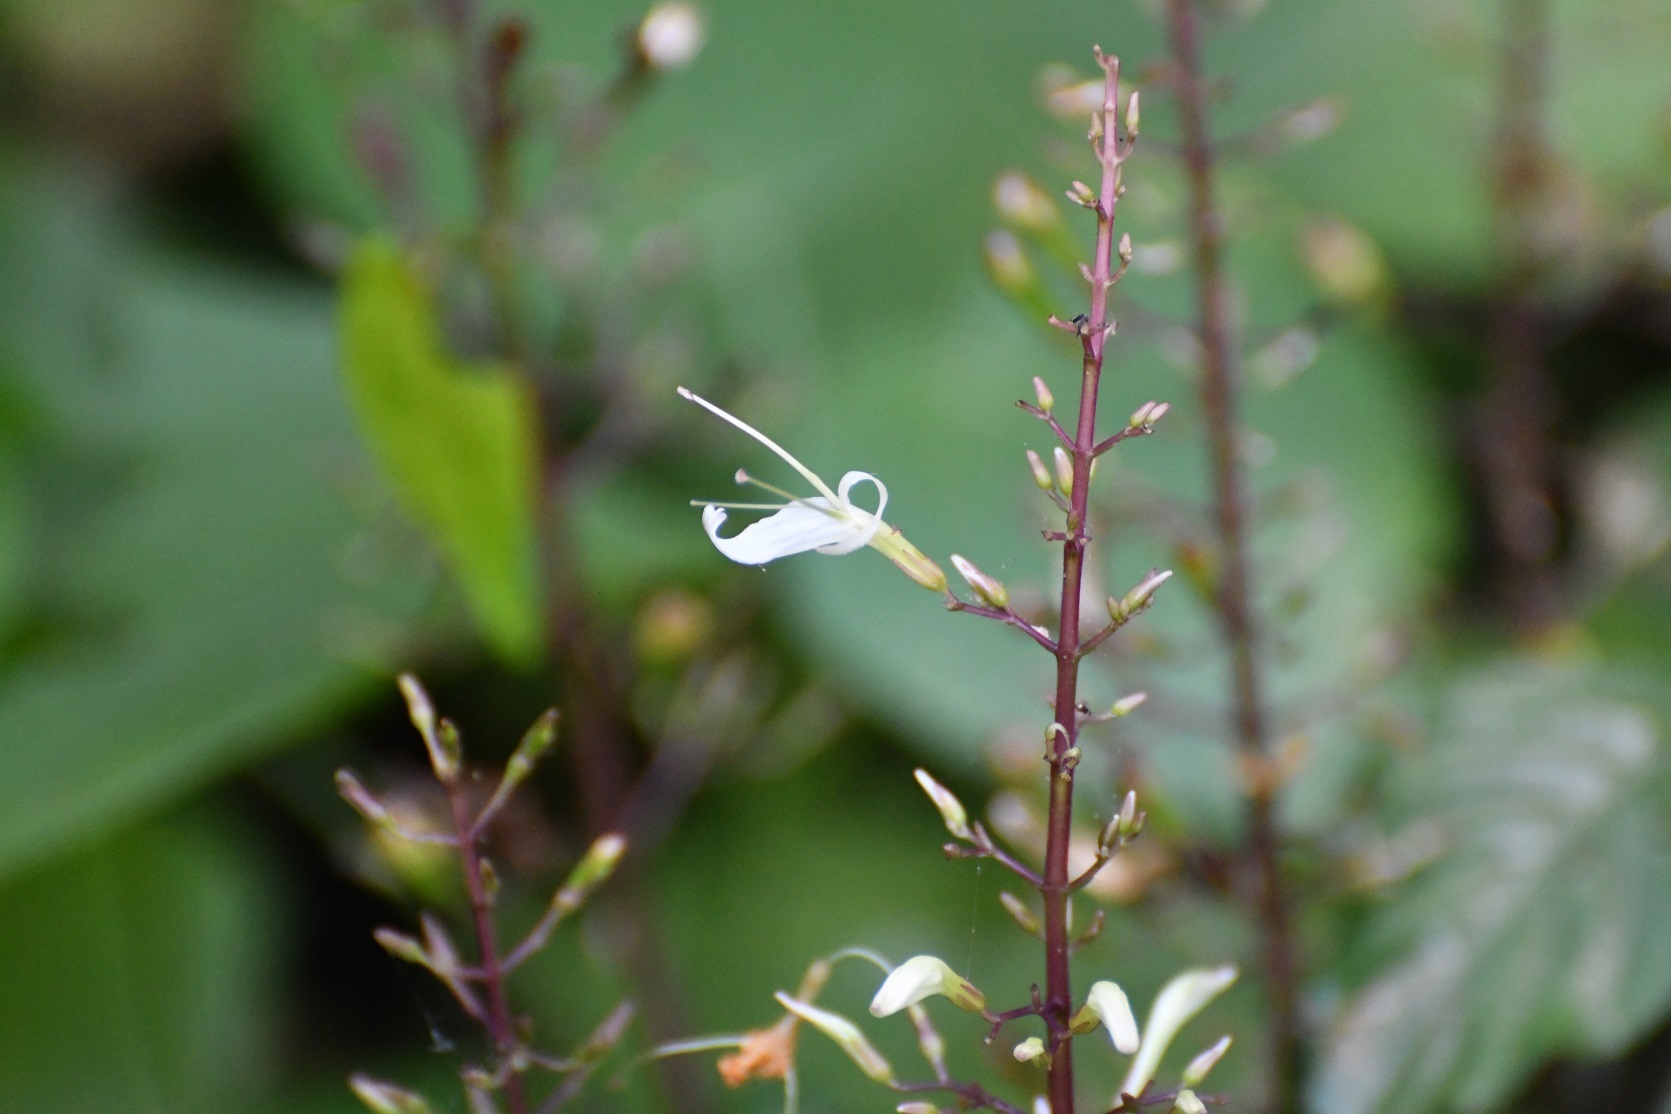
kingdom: Plantae
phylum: Tracheophyta
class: Magnoliopsida
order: Lamiales
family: Acanthaceae
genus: Stenostephanus
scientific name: Stenostephanus silvaticus
